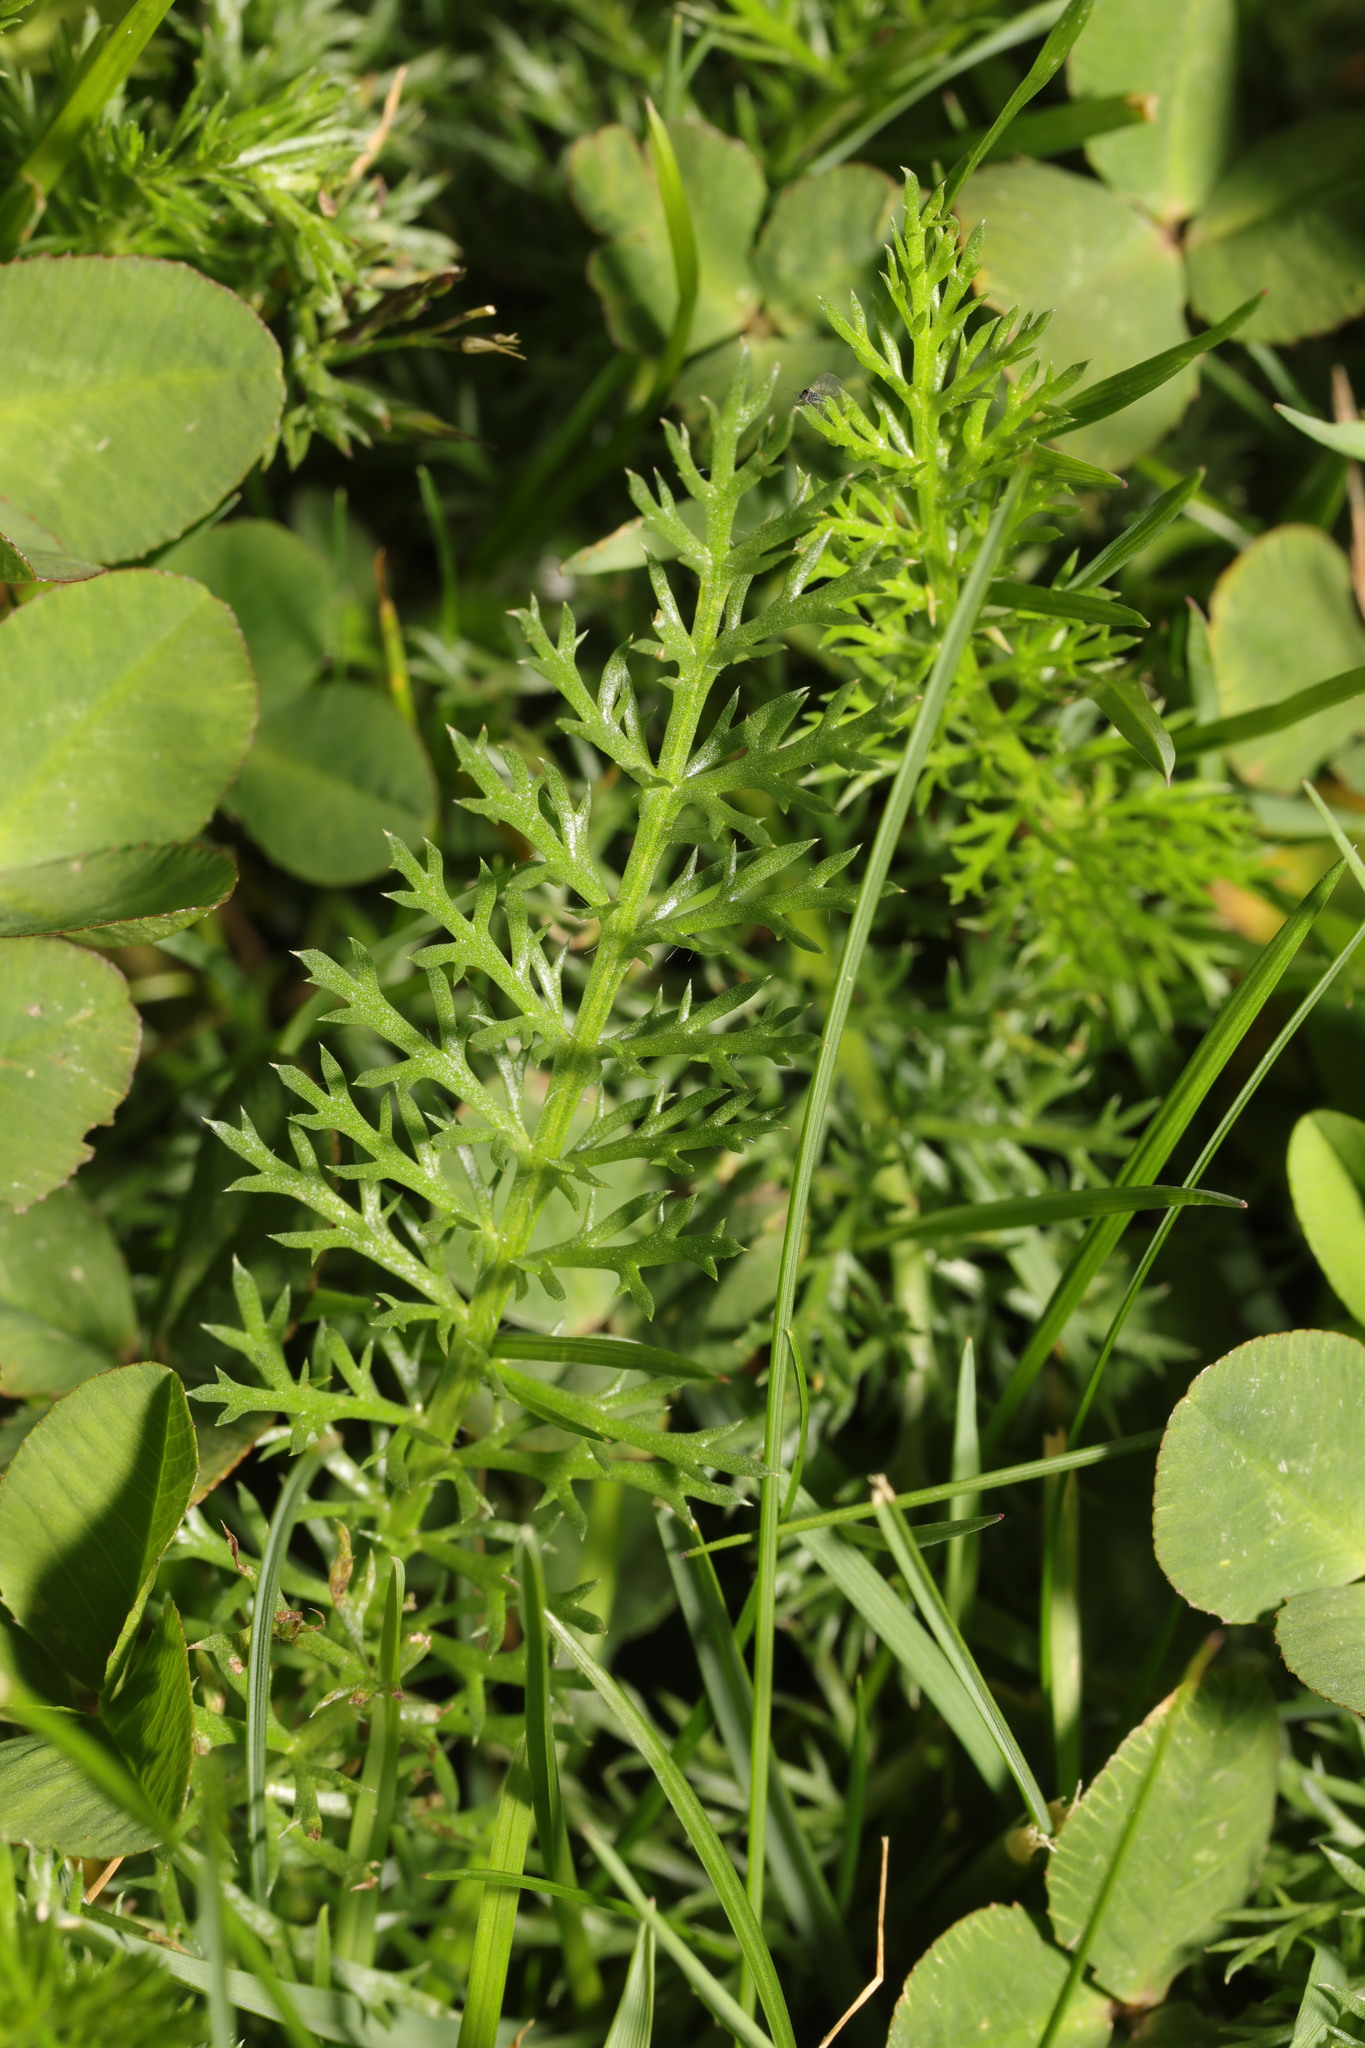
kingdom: Plantae
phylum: Tracheophyta
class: Magnoliopsida
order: Asterales
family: Asteraceae
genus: Achillea
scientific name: Achillea millefolium
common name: Yarrow
